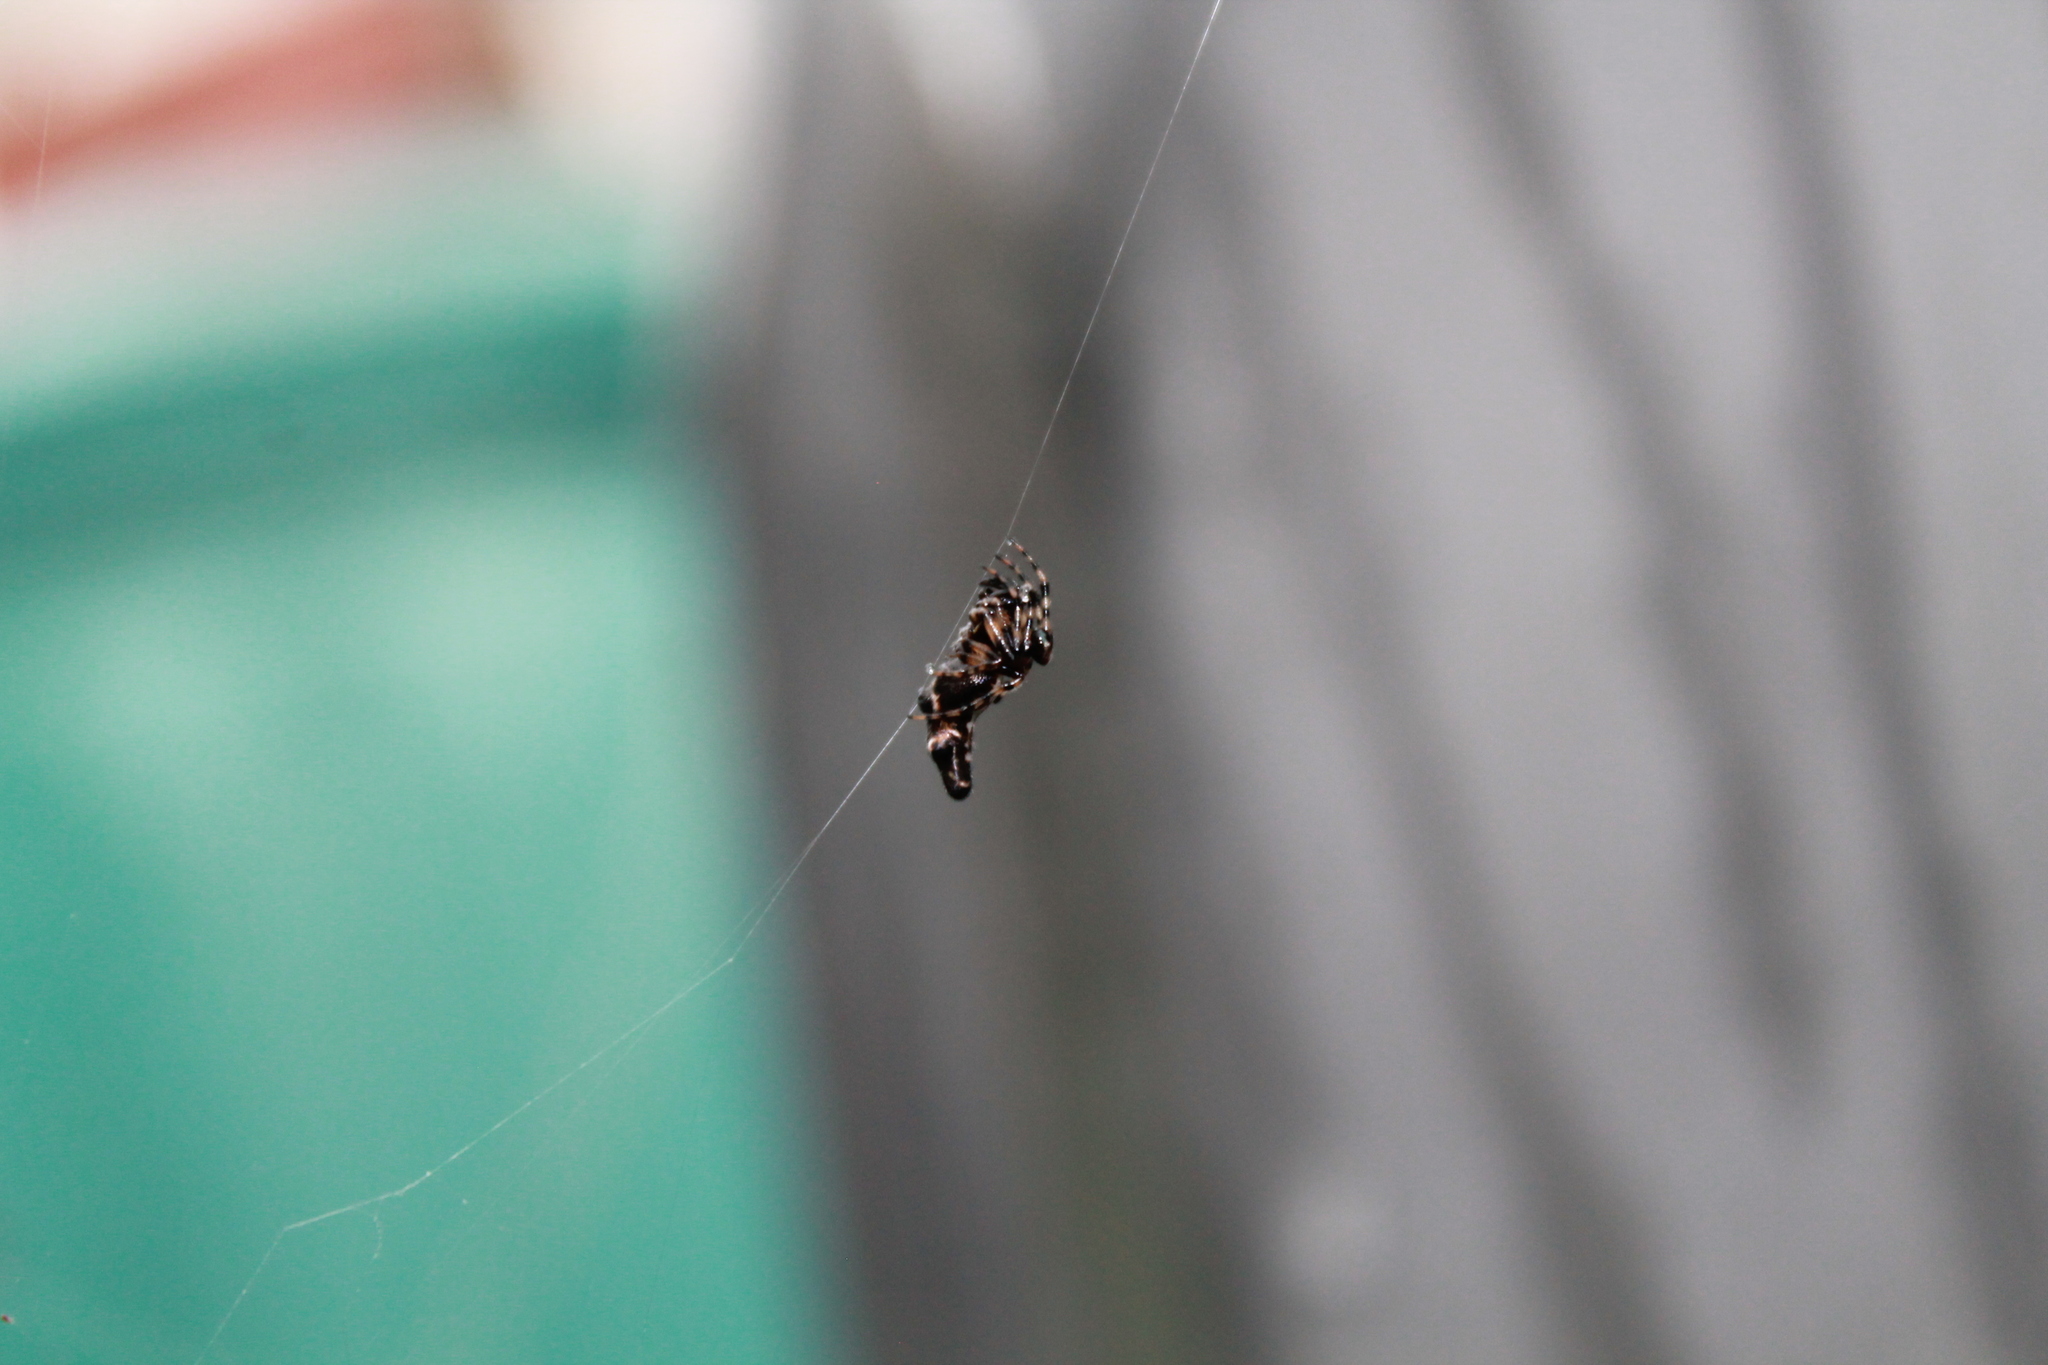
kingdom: Animalia
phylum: Arthropoda
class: Arachnida
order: Araneae
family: Araneidae
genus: Cyclosa
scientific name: Cyclosa trilobata
